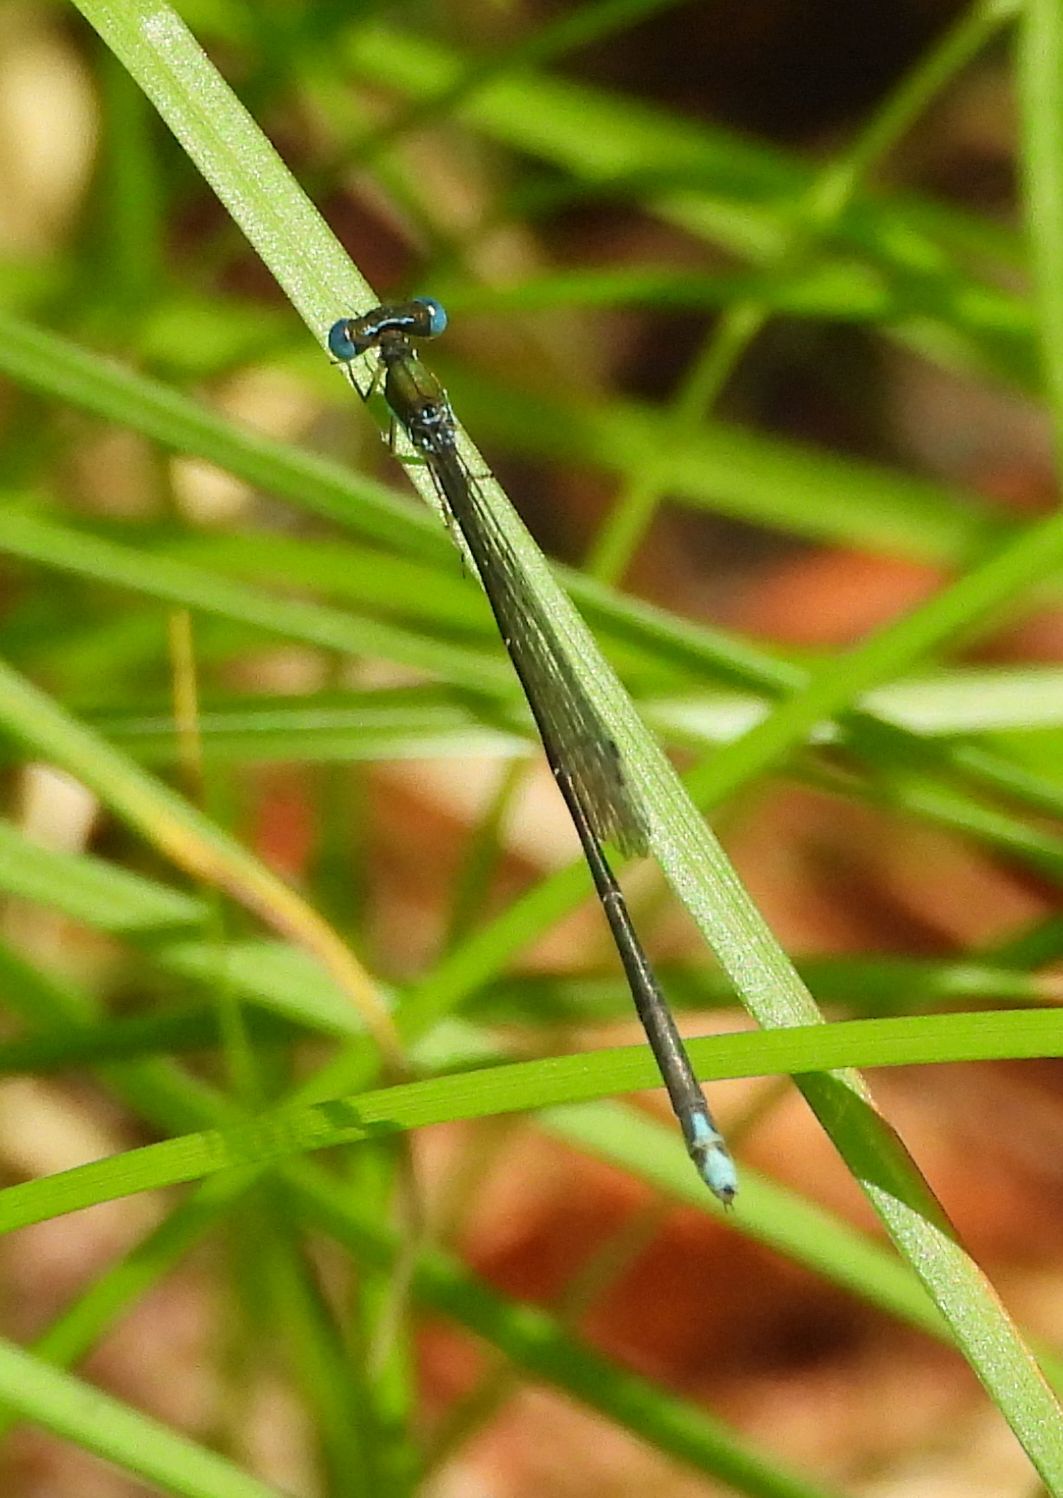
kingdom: Animalia
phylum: Arthropoda
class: Insecta
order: Odonata
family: Coenagrionidae
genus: Nehalennia
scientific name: Nehalennia irene
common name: Sedge sprite
